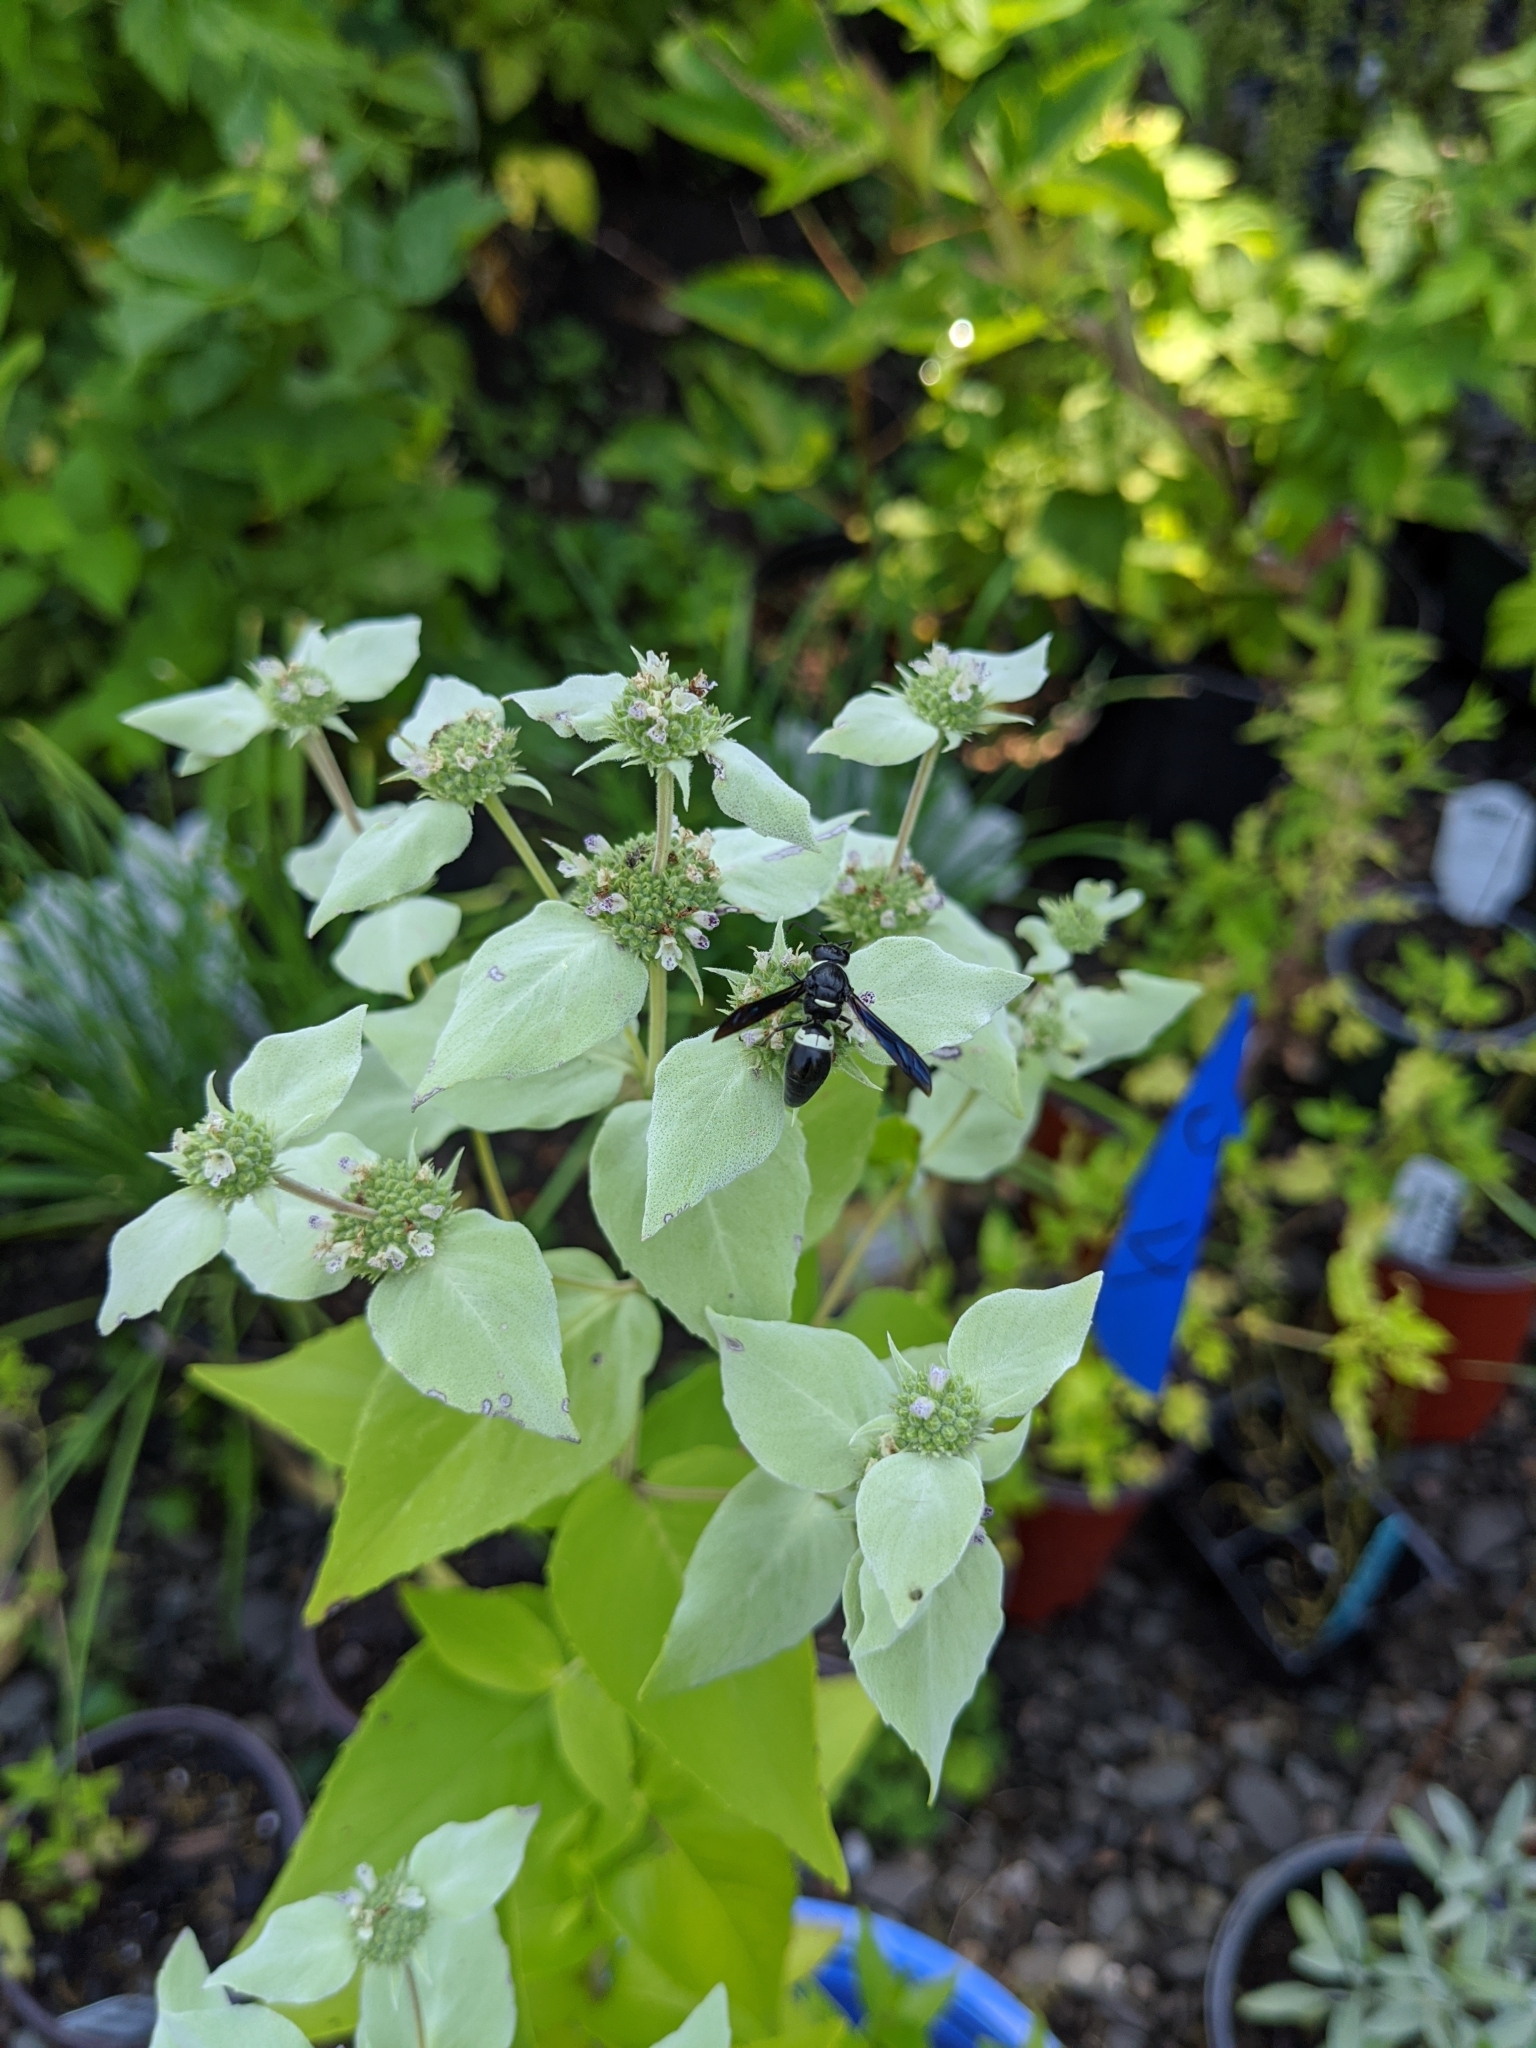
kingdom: Animalia
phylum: Arthropoda
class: Insecta
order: Hymenoptera
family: Eumenidae
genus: Monobia
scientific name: Monobia quadridens
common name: Four-toothed mason wasp
